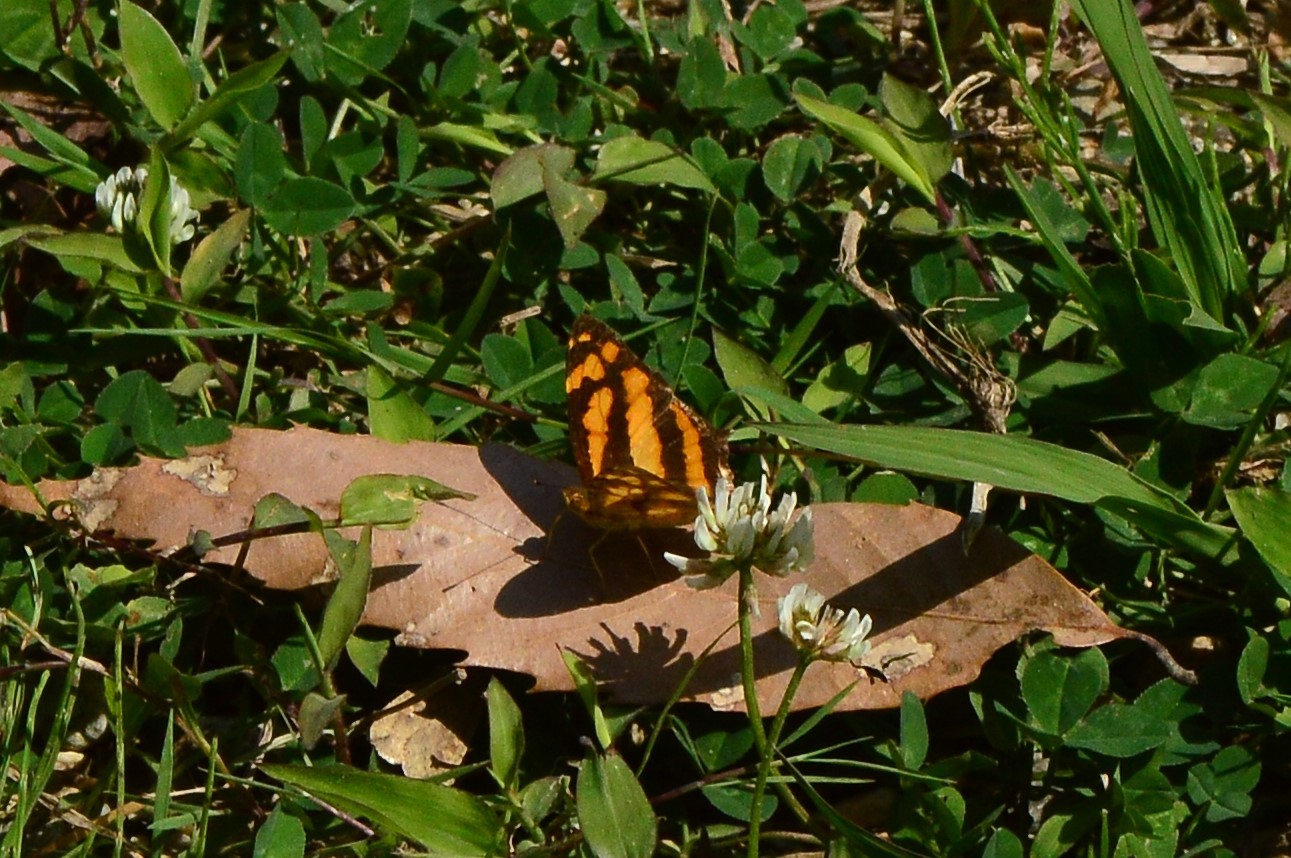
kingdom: Animalia
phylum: Arthropoda
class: Insecta
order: Lepidoptera
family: Nymphalidae
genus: Symbrenthia
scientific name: Symbrenthia hypselis
